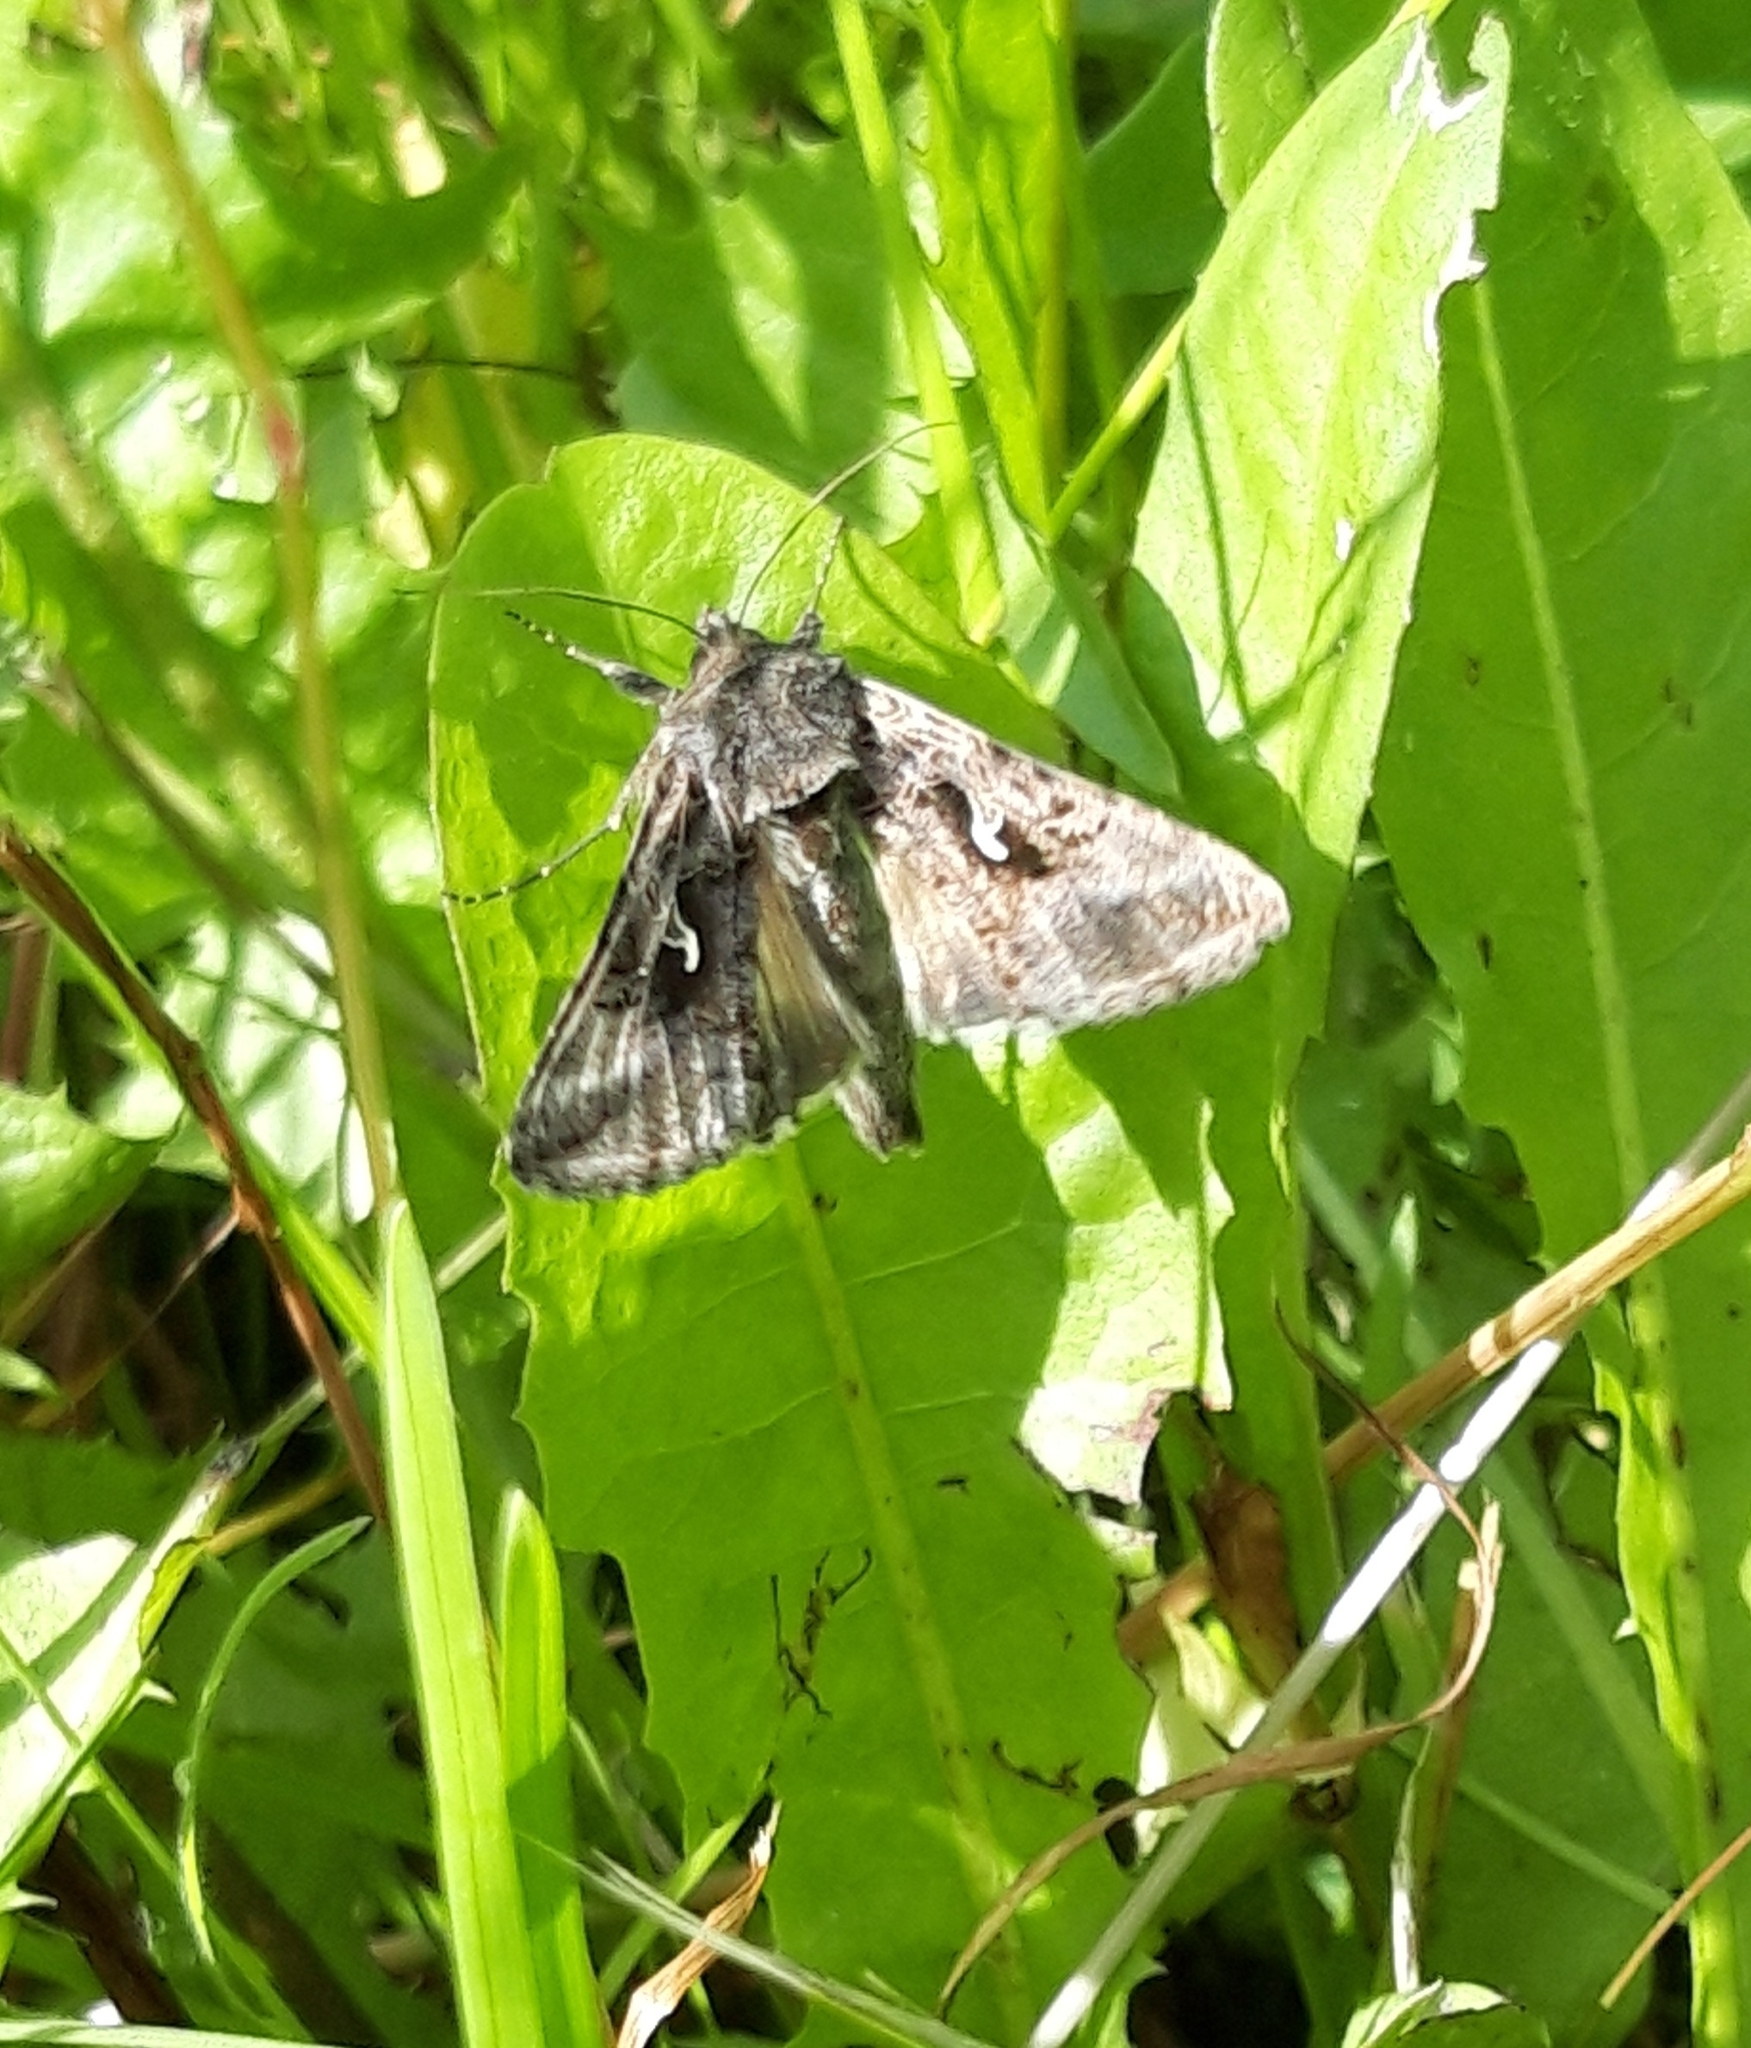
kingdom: Animalia
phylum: Arthropoda
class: Insecta
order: Lepidoptera
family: Noctuidae
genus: Autographa
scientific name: Autographa gamma
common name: Silver y
